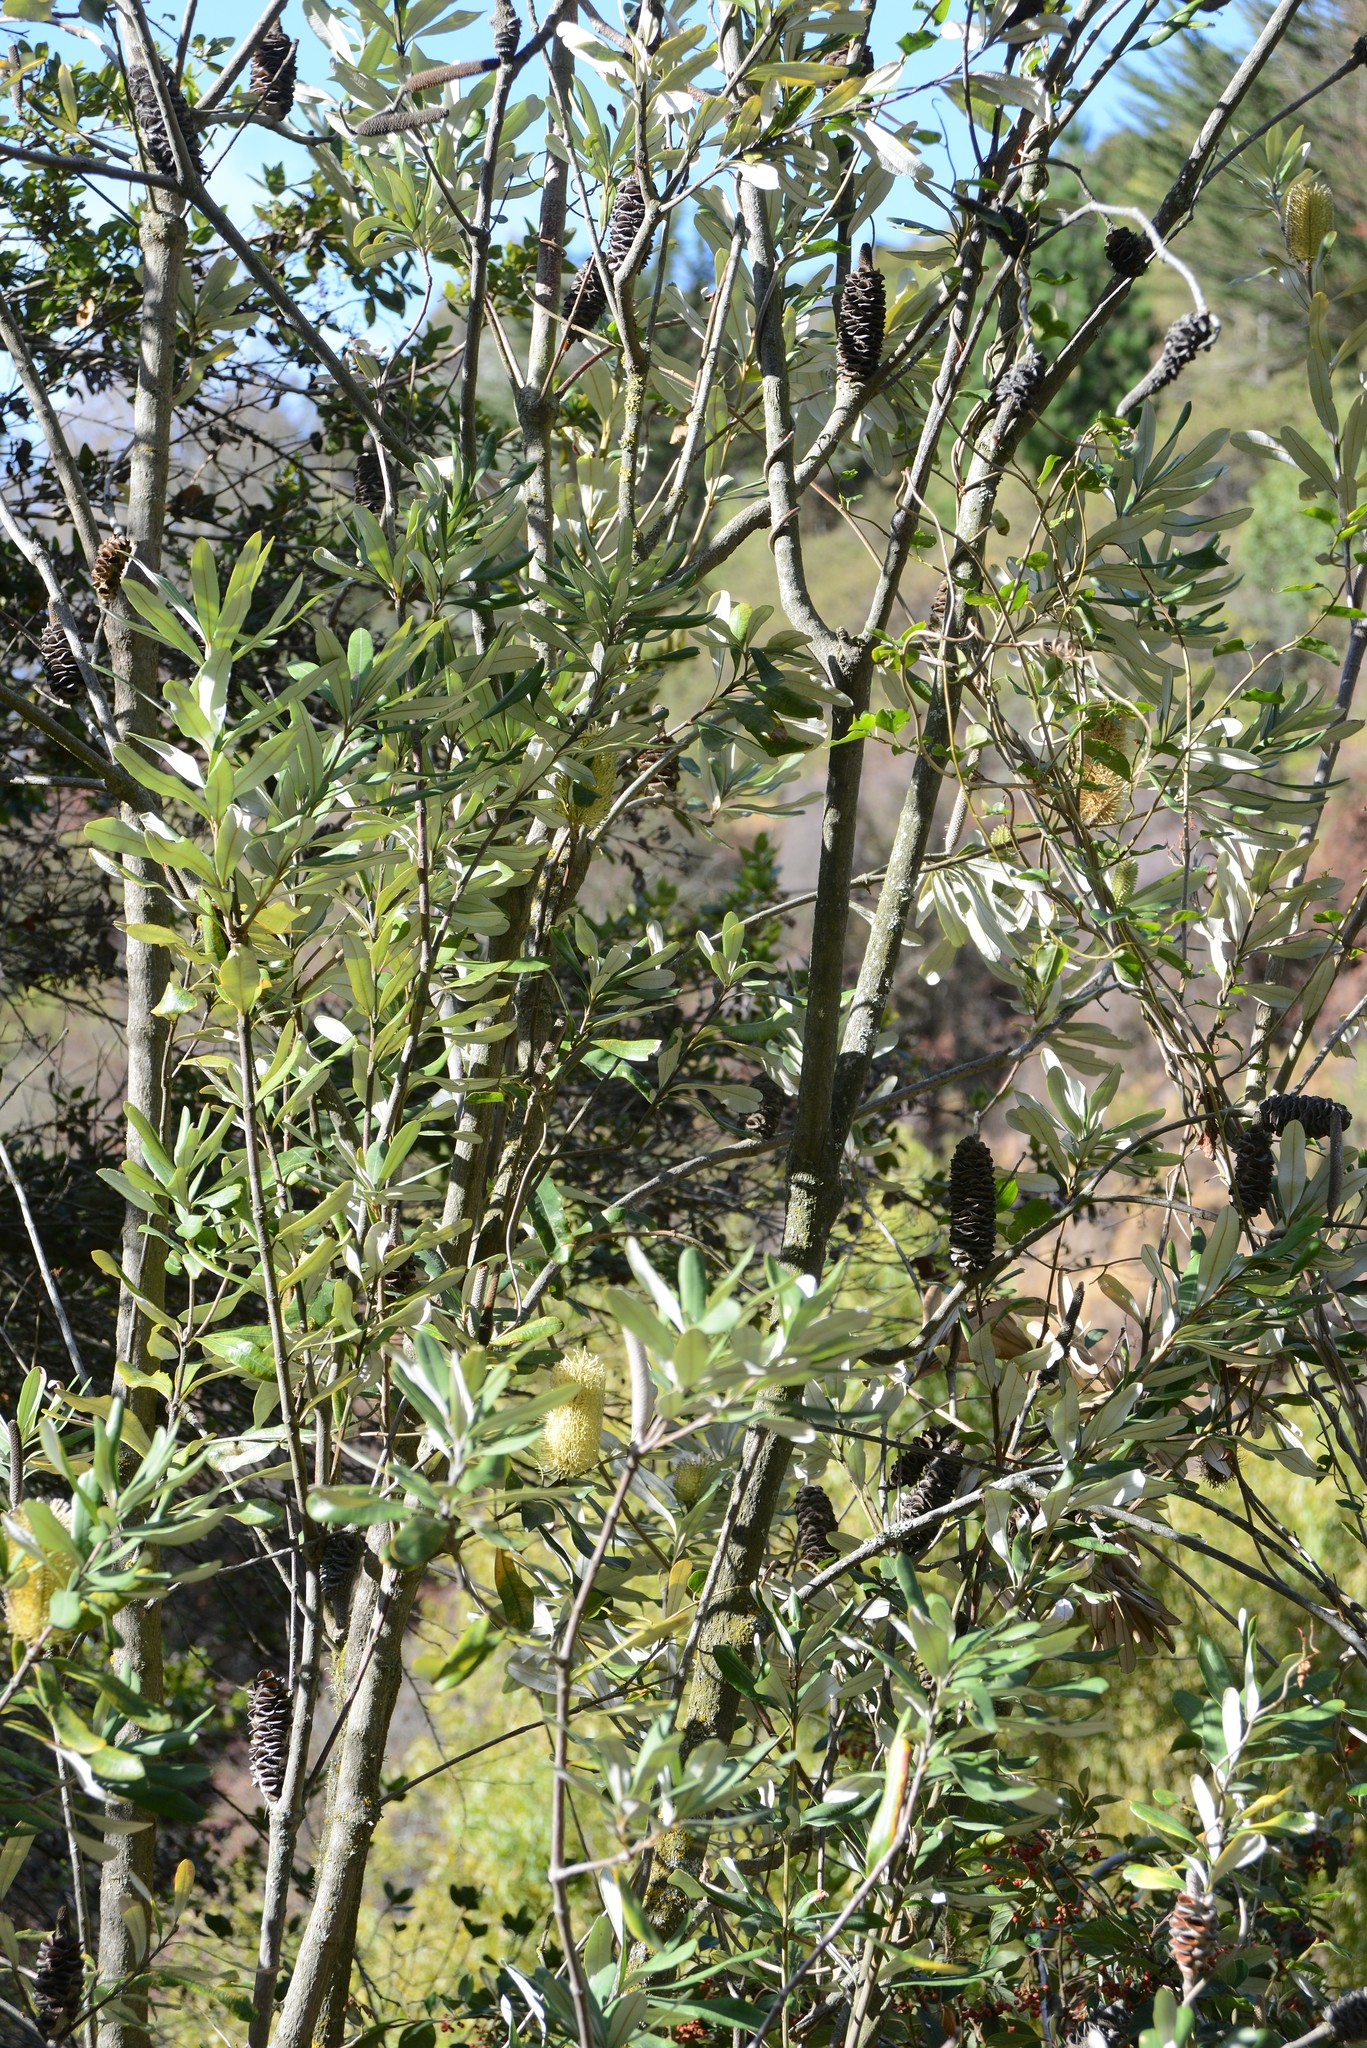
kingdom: Plantae
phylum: Tracheophyta
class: Magnoliopsida
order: Proteales
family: Proteaceae
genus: Banksia
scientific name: Banksia integrifolia
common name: White-honeysuckle
